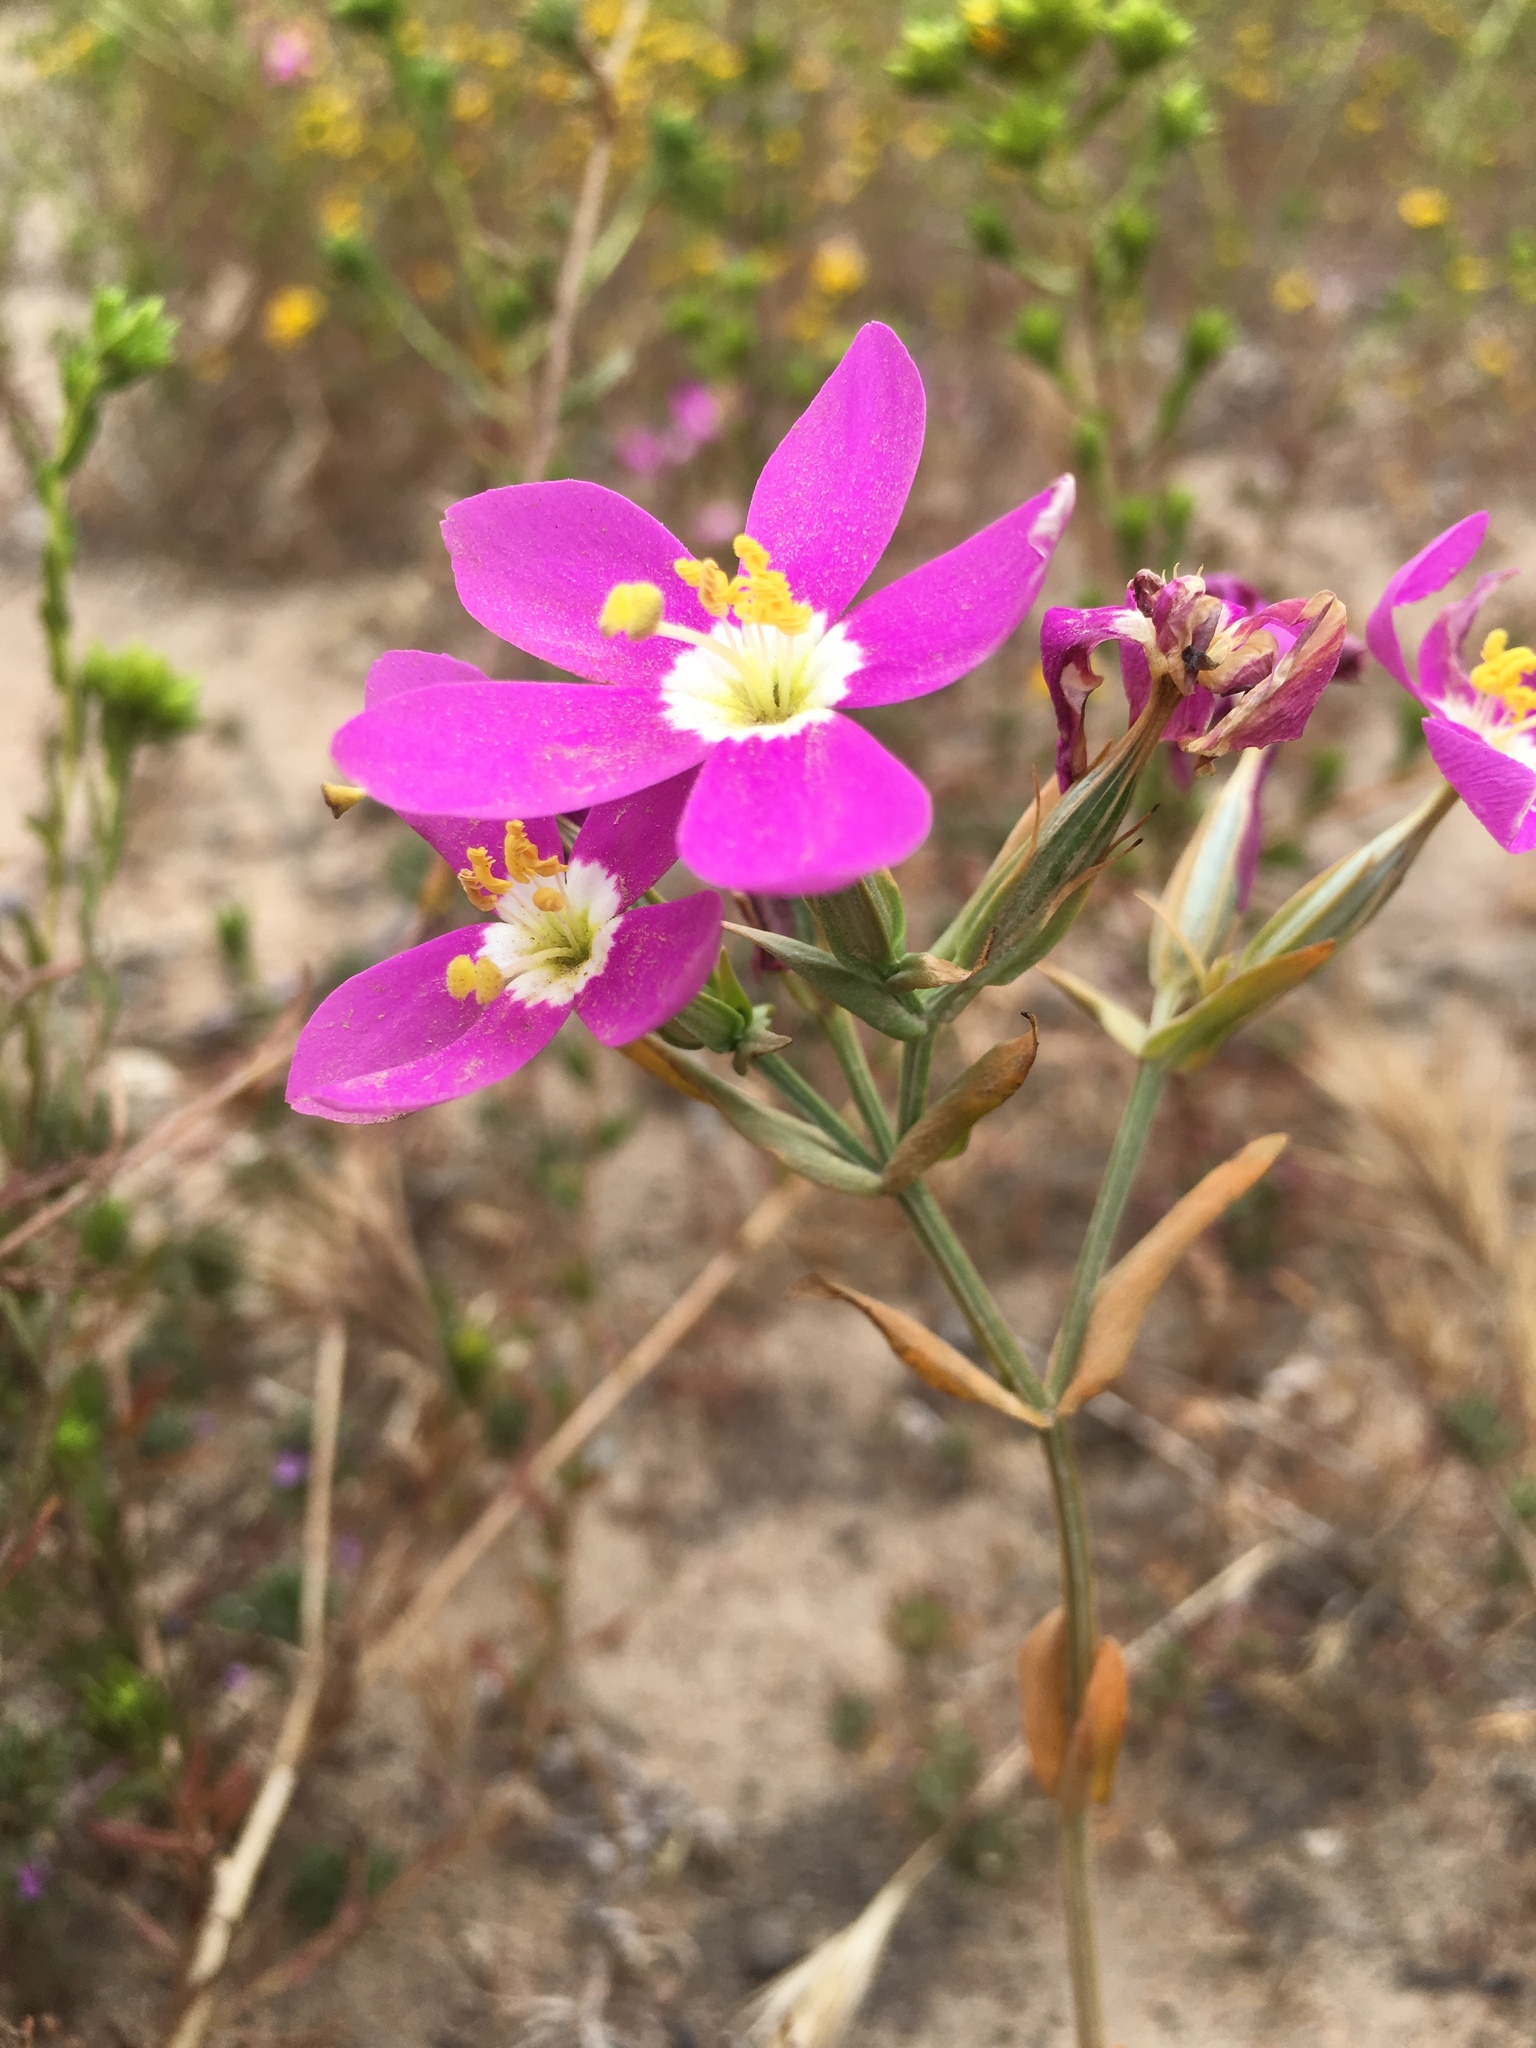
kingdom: Plantae
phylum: Tracheophyta
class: Magnoliopsida
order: Gentianales
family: Gentianaceae
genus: Zeltnera
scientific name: Zeltnera venusta
